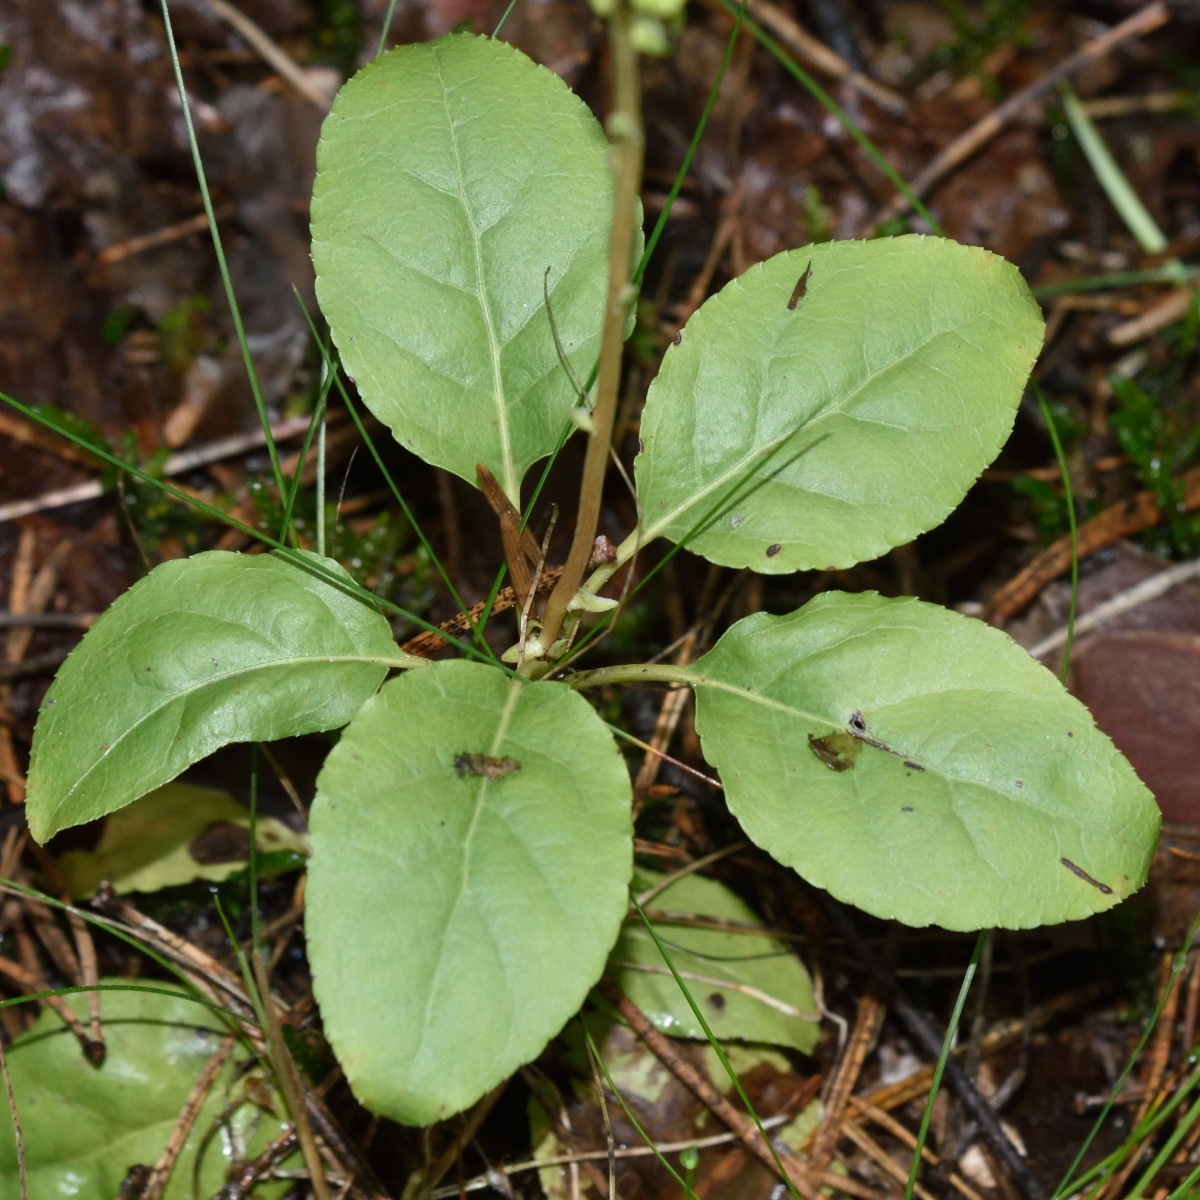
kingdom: Plantae
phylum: Tracheophyta
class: Magnoliopsida
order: Ericales
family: Ericaceae
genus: Orthilia
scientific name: Orthilia secunda
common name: One-sided orthilia
